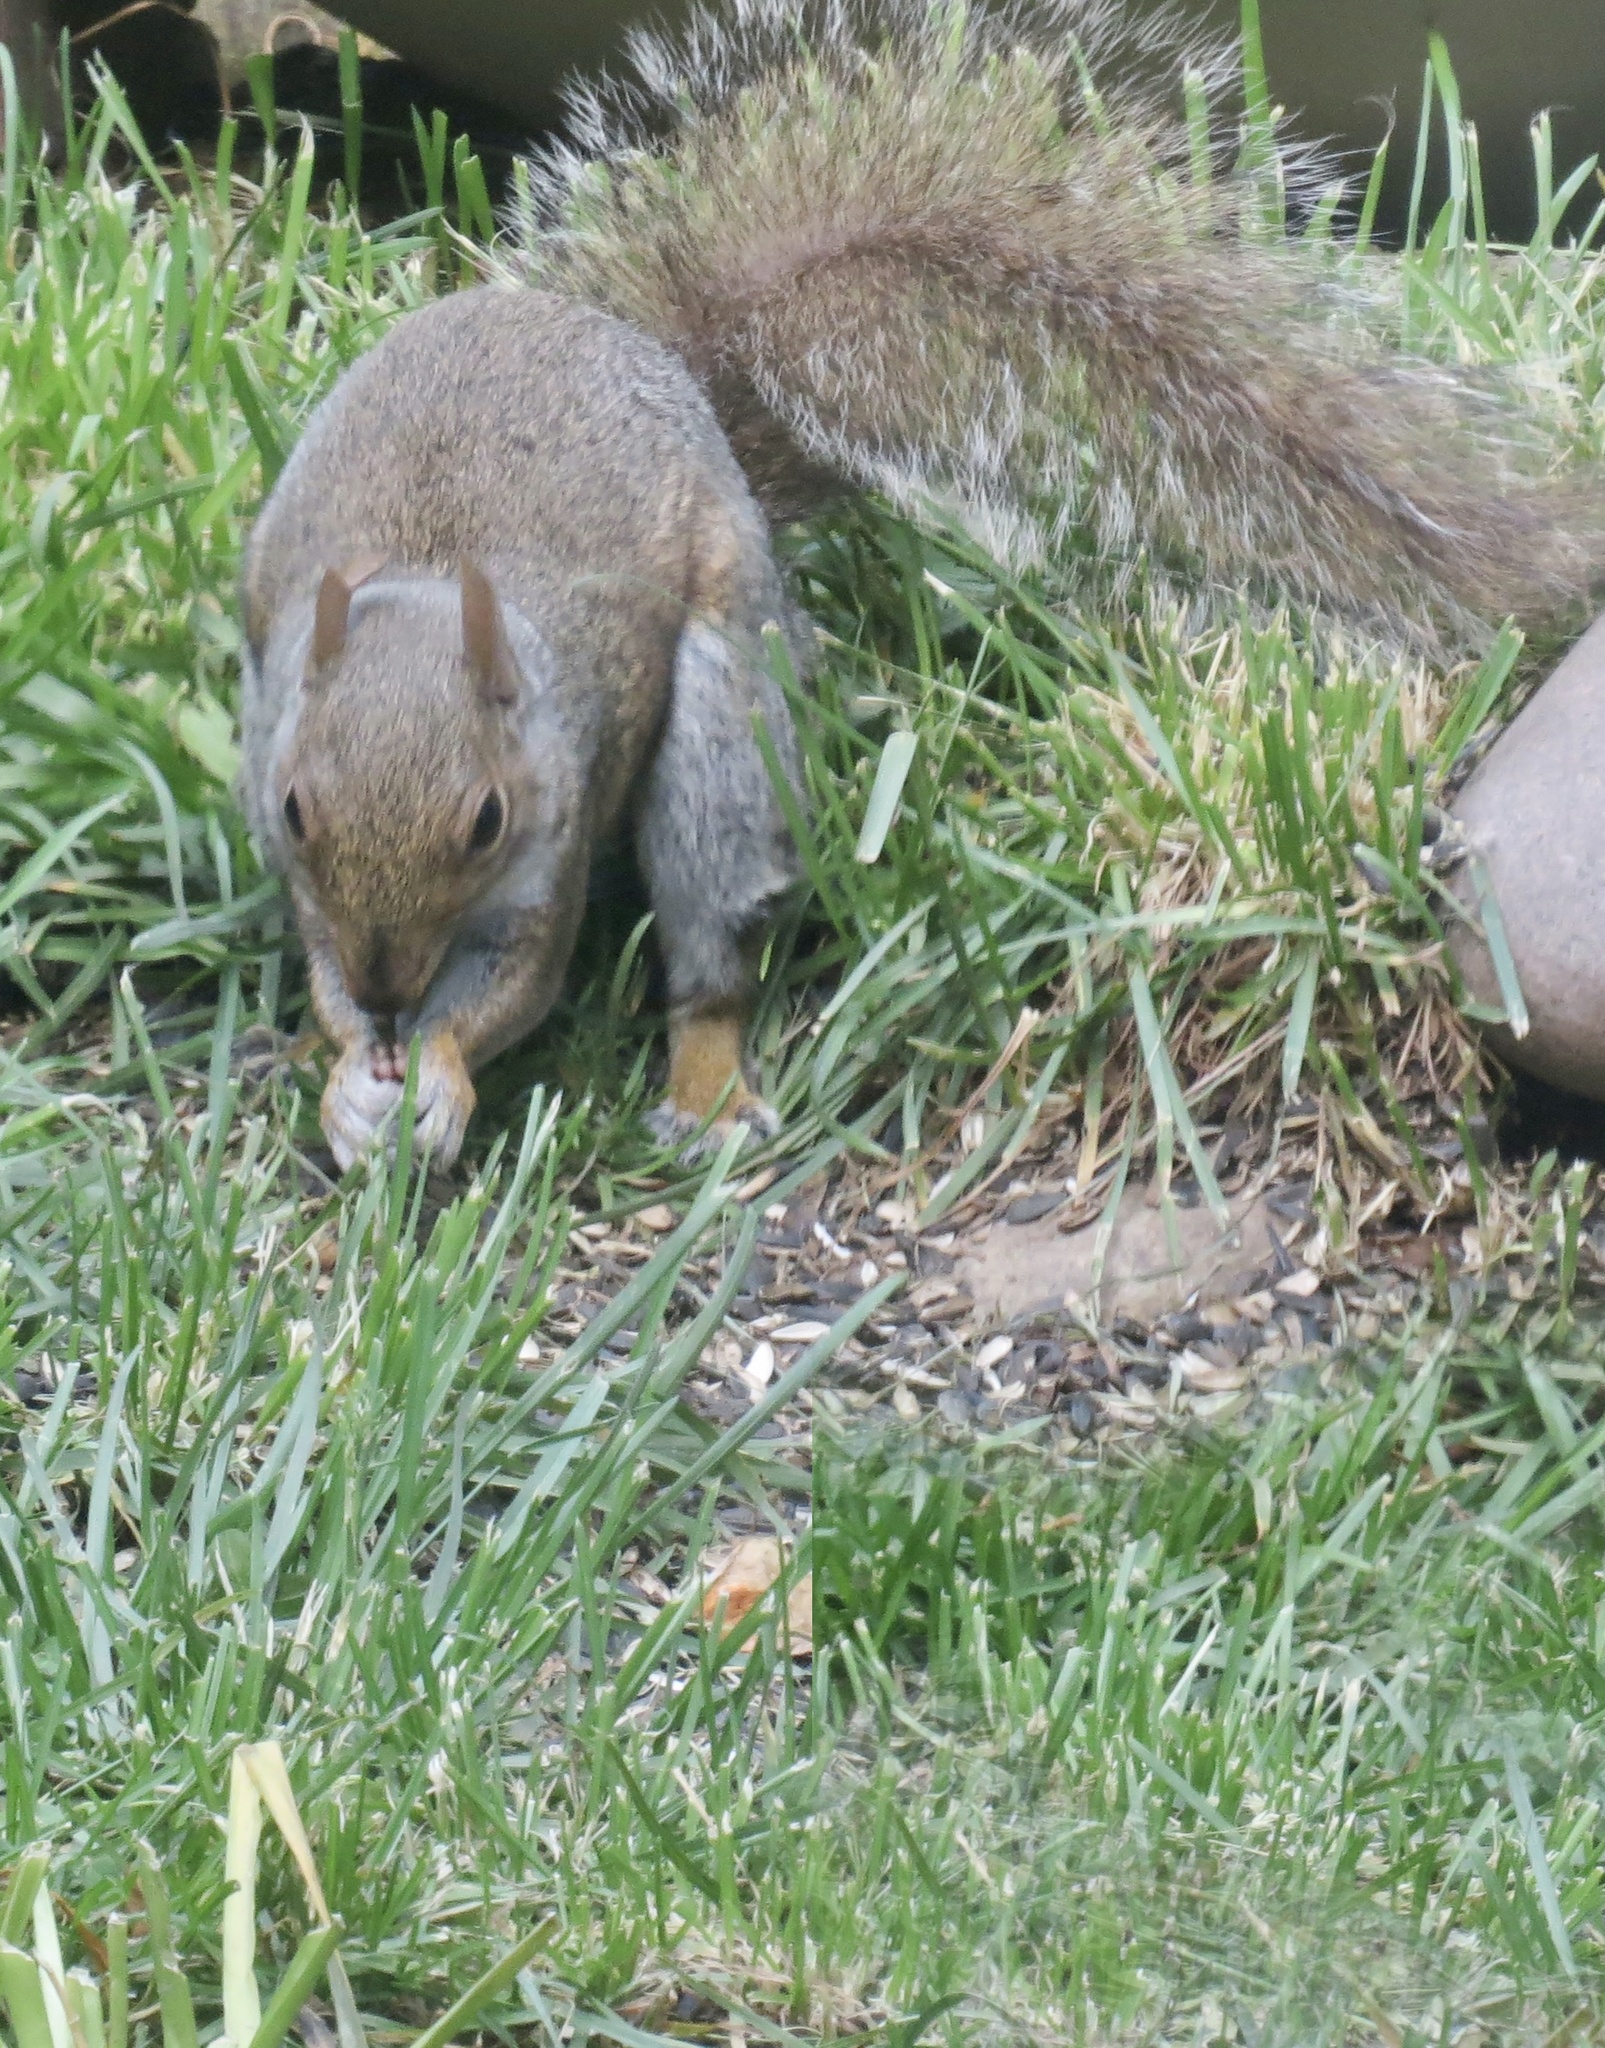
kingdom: Animalia
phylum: Chordata
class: Mammalia
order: Rodentia
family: Sciuridae
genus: Sciurus
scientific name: Sciurus carolinensis
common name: Eastern gray squirrel
